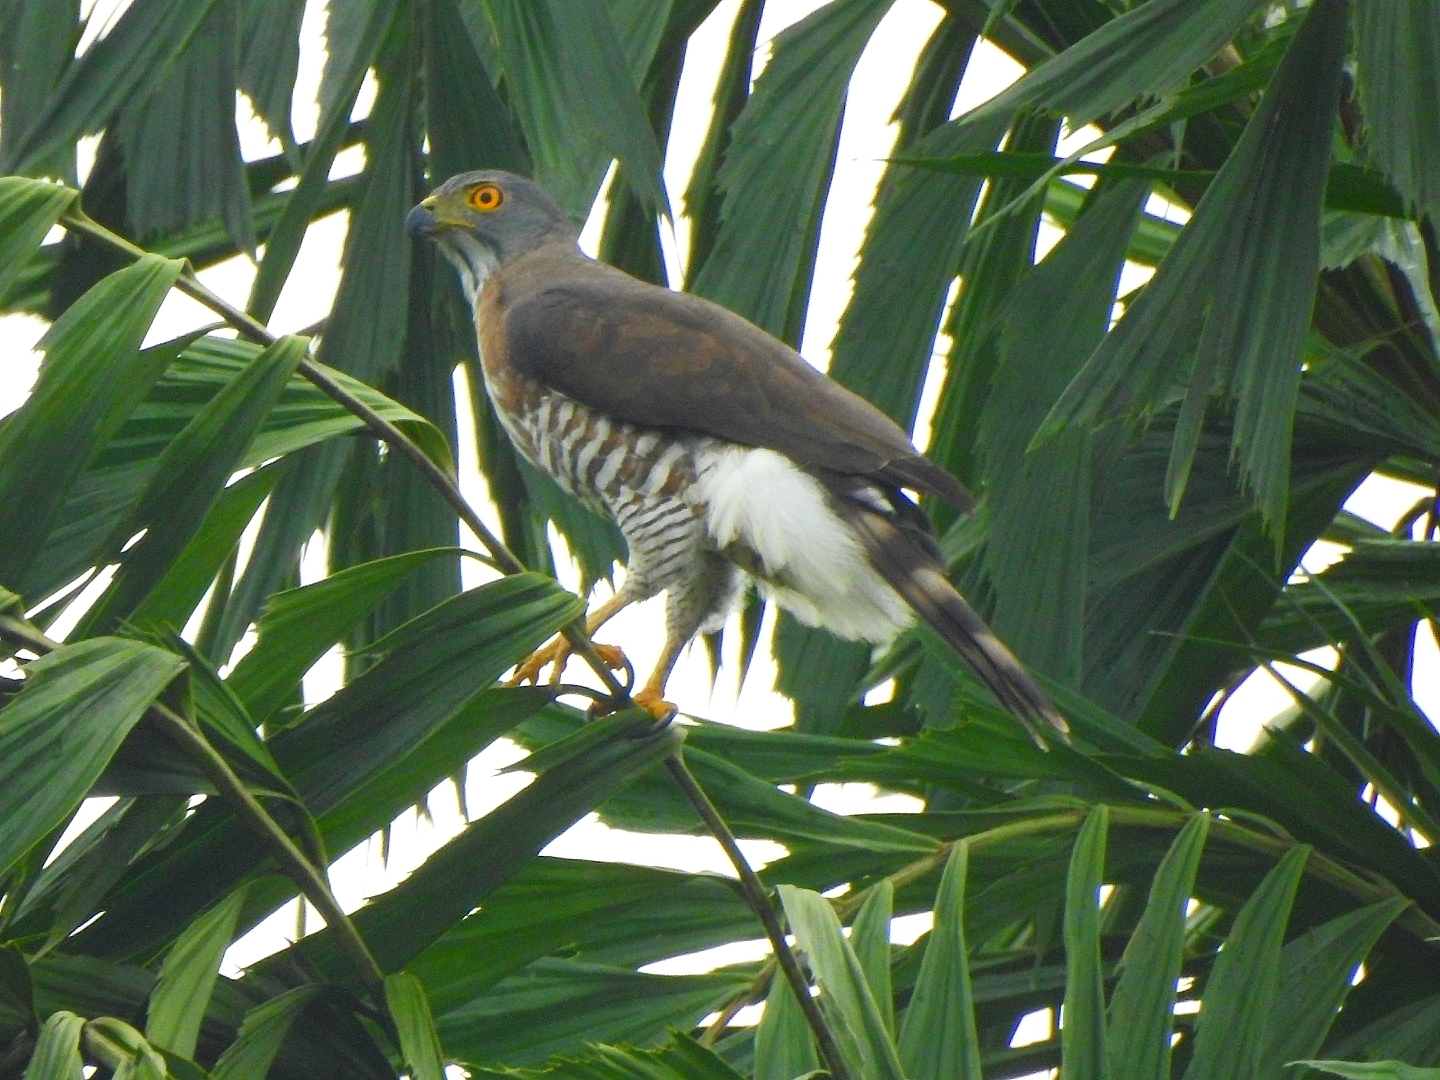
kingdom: Animalia
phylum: Chordata
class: Aves
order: Accipitriformes
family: Accipitridae
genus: Accipiter
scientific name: Accipiter trivirgatus
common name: Crested goshawk
